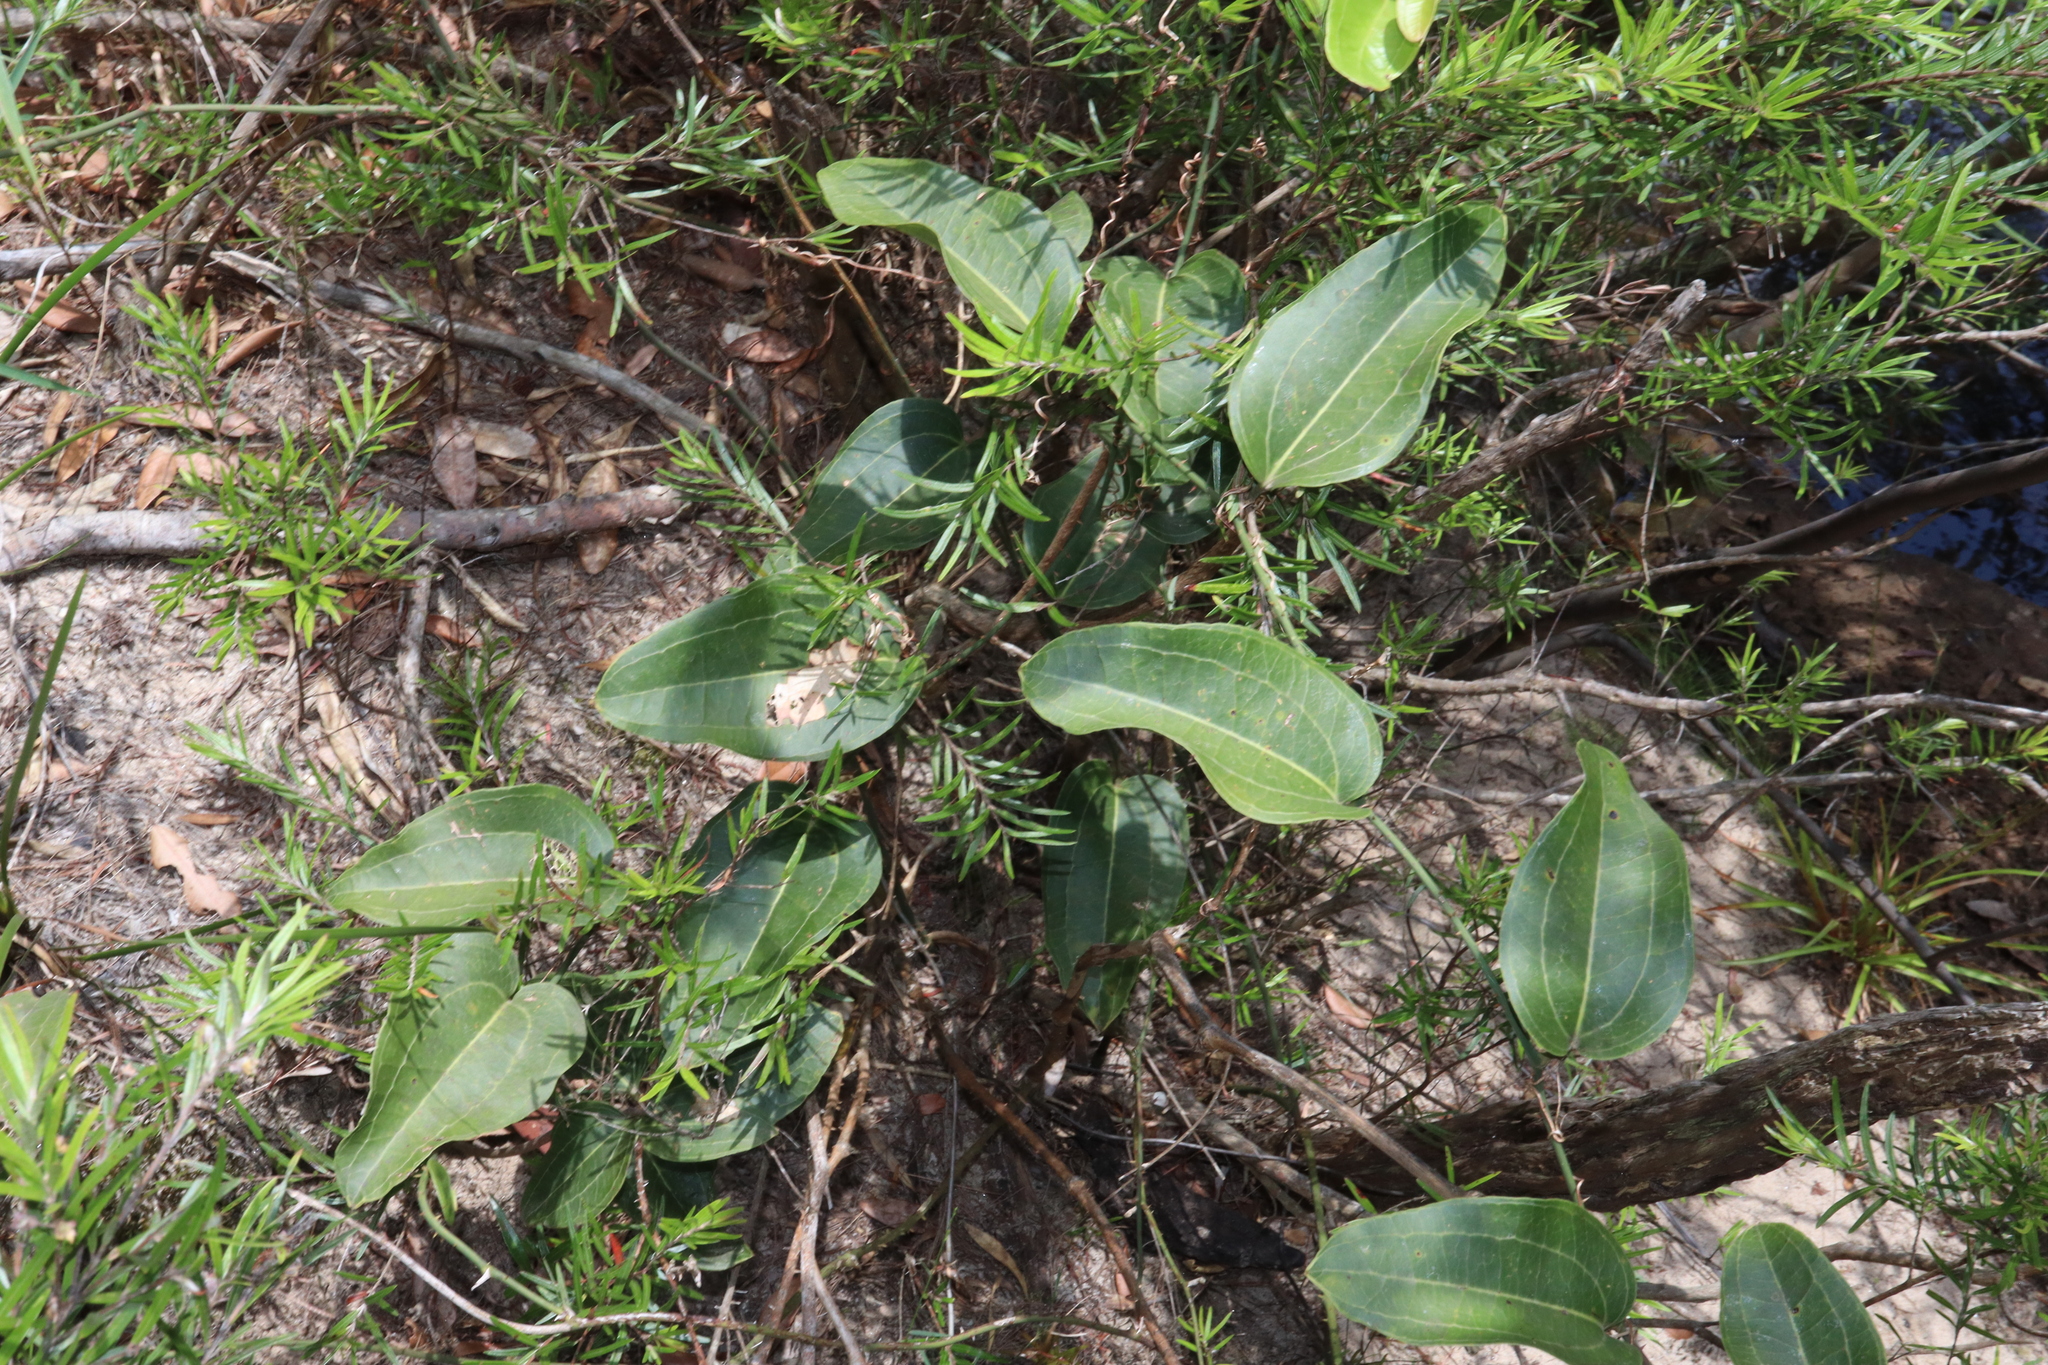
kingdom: Plantae
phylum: Tracheophyta
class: Liliopsida
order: Liliales
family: Smilacaceae
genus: Smilax
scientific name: Smilax australis
